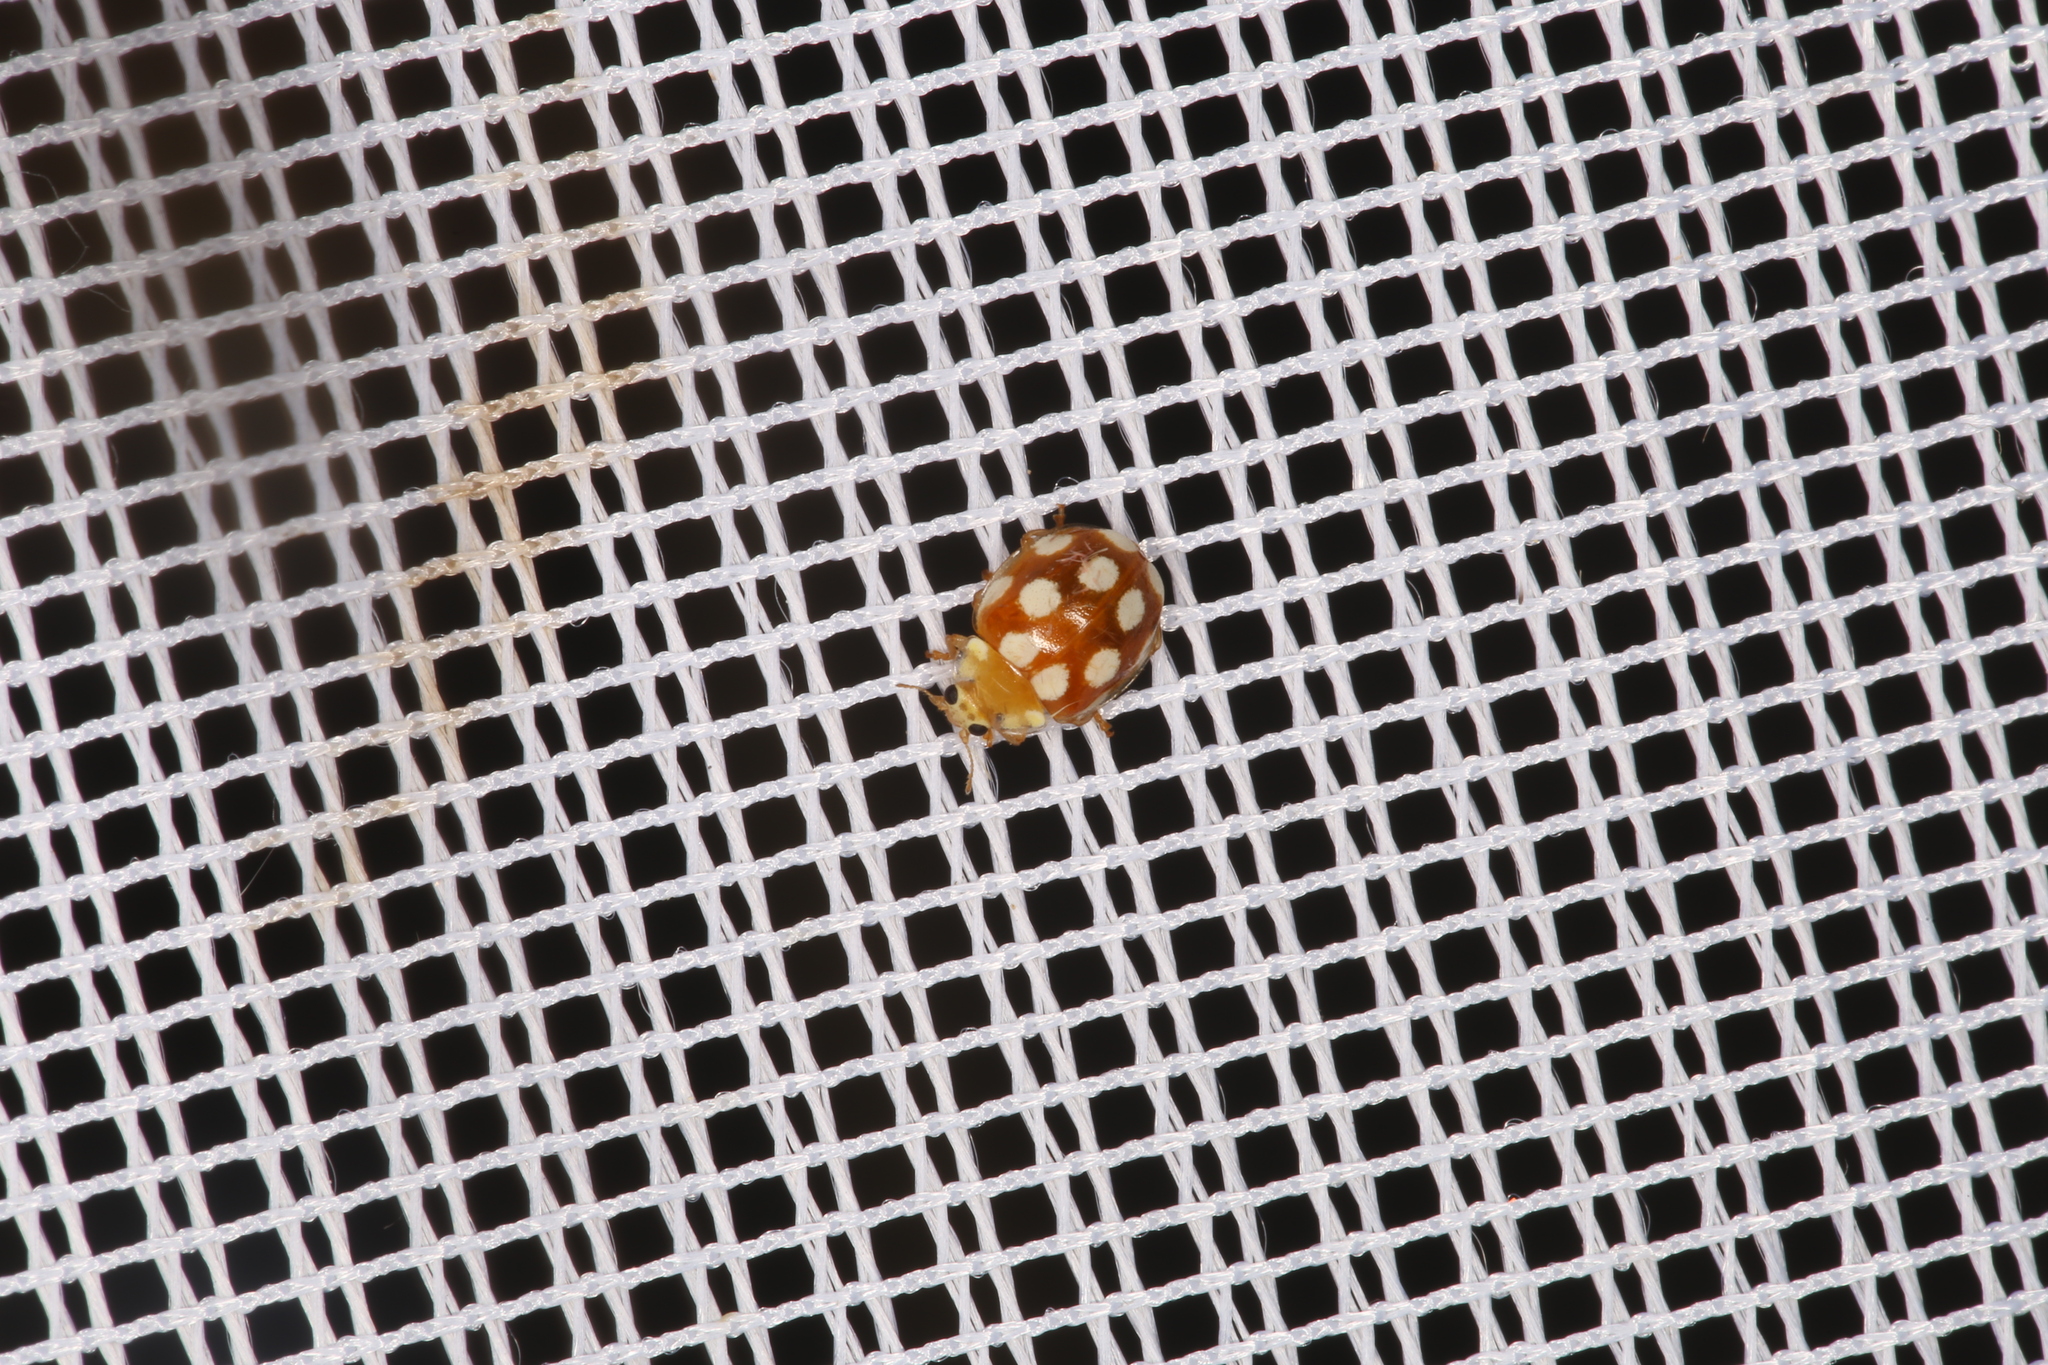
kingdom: Animalia
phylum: Arthropoda
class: Insecta
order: Coleoptera
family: Coccinellidae
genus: Vibidia
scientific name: Vibidia duodecimguttata
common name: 12-spot ladybird
